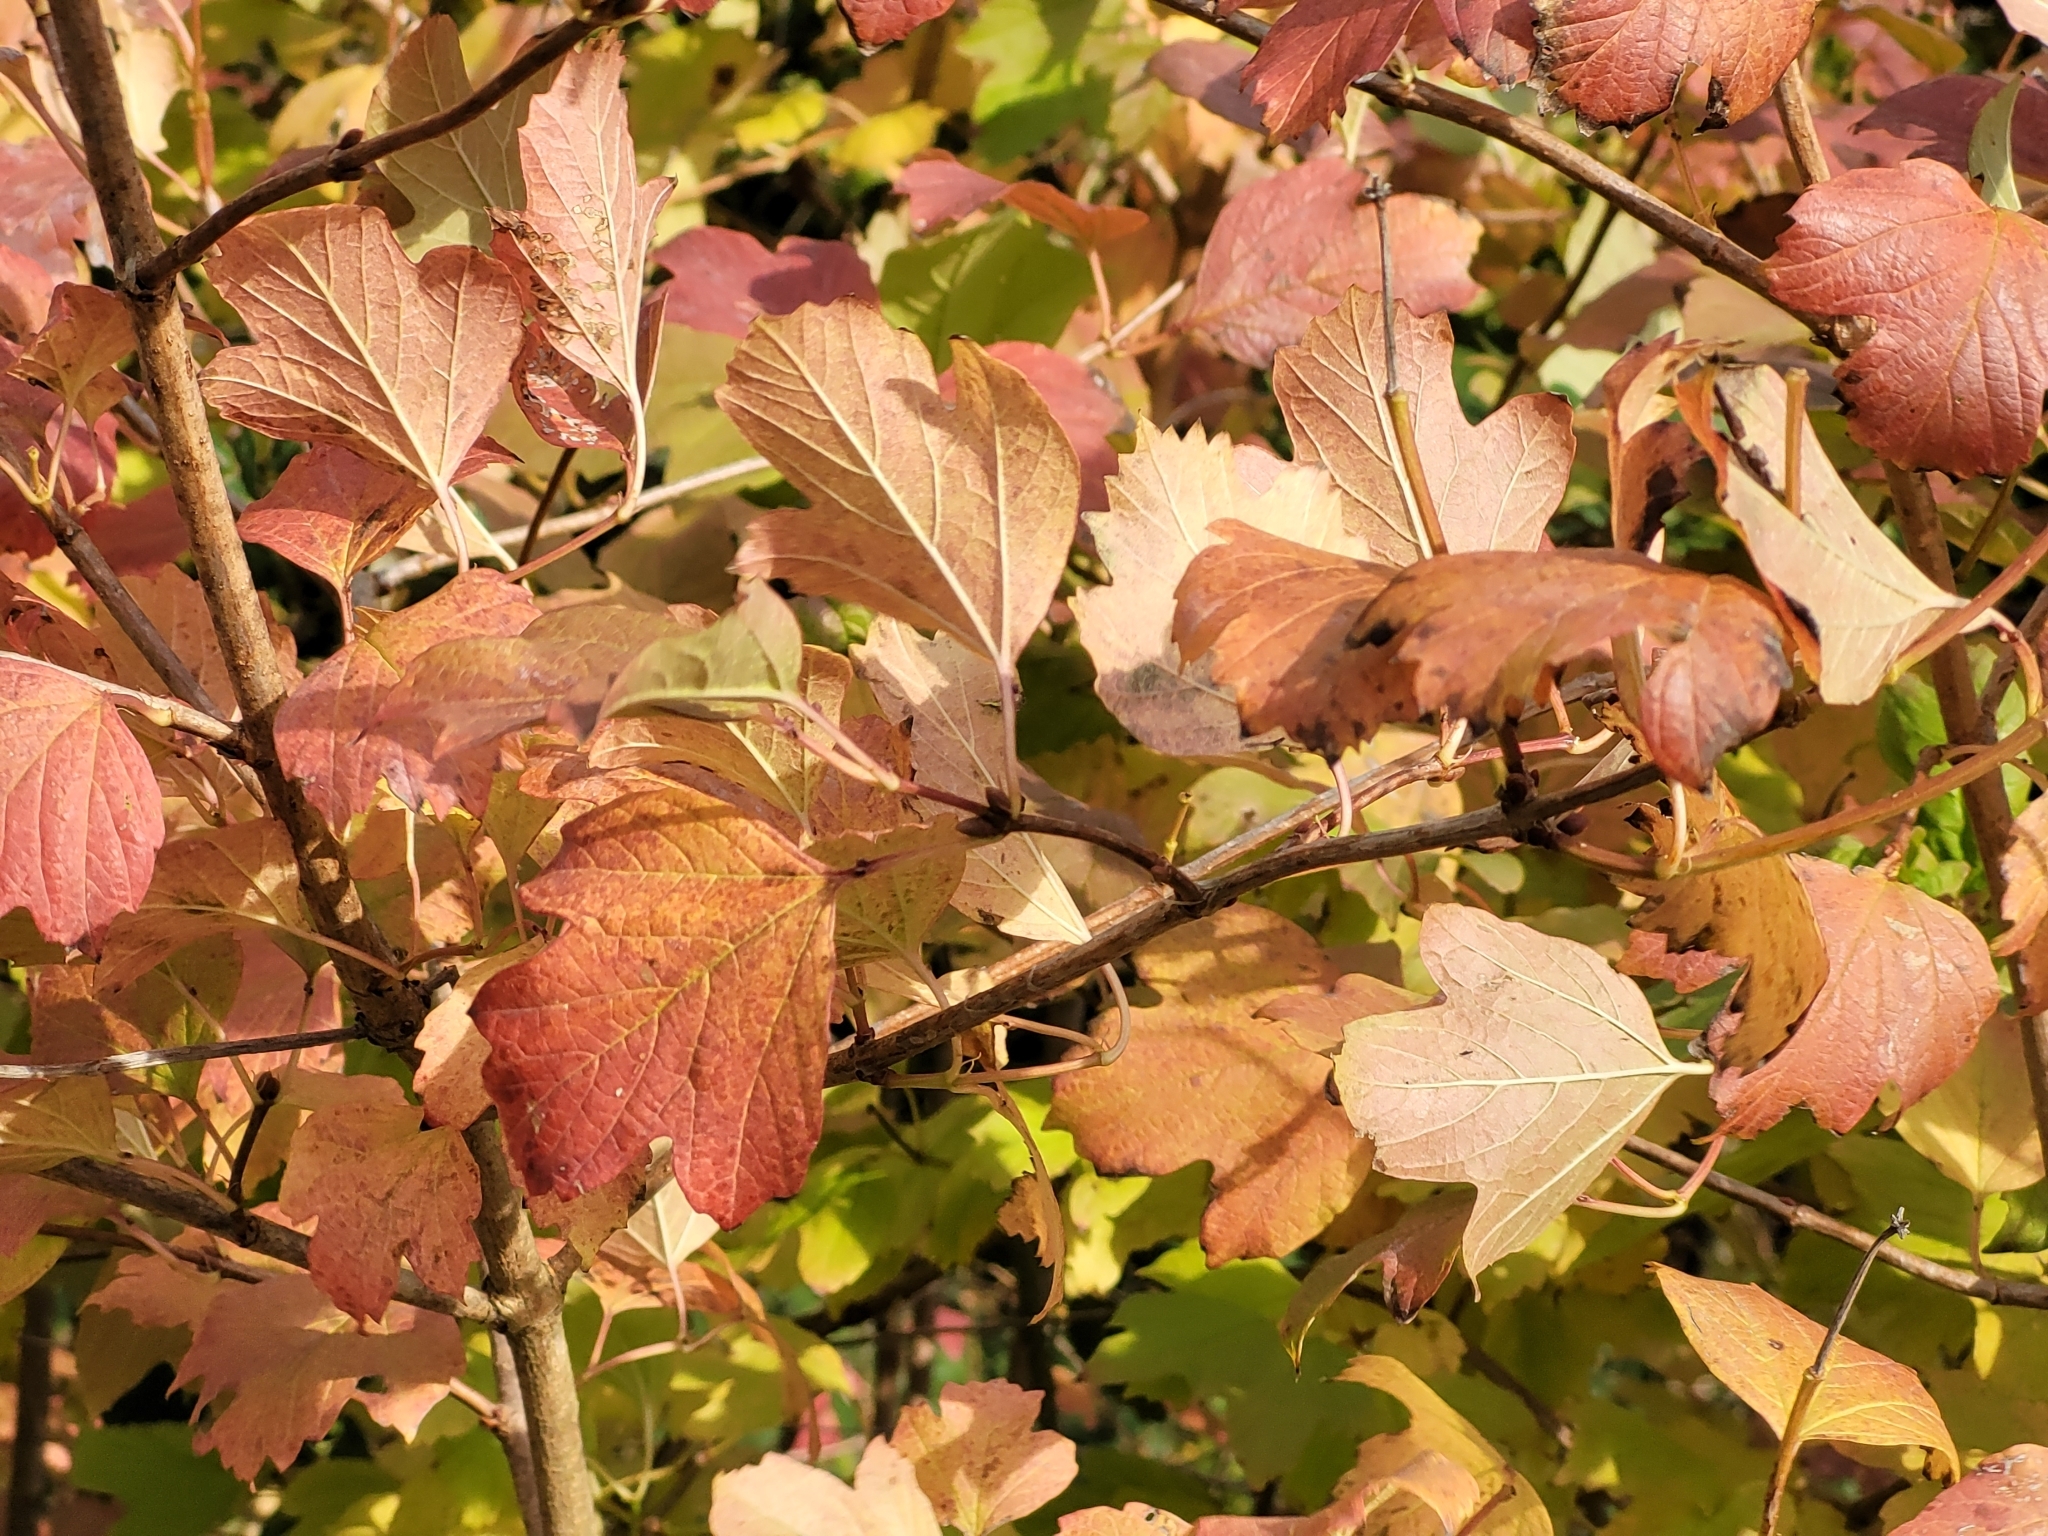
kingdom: Plantae
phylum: Tracheophyta
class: Magnoliopsida
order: Dipsacales
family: Viburnaceae
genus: Viburnum
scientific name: Viburnum opulus
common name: Guelder-rose
